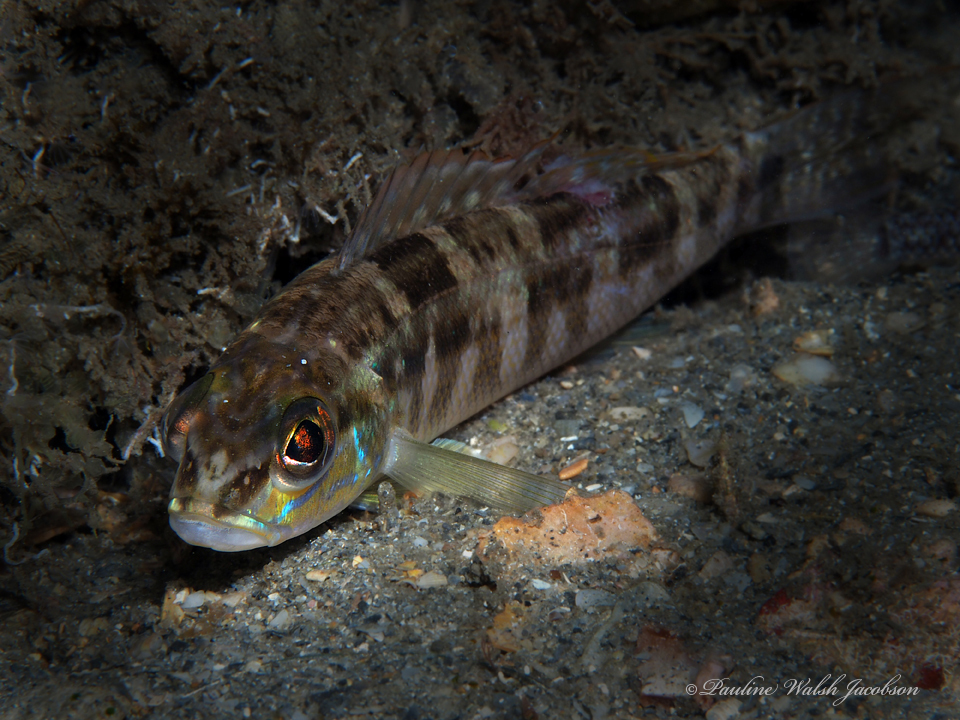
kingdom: Animalia
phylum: Chordata
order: Perciformes
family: Serranidae
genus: Diplectrum
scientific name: Diplectrum bivittatum
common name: Dwarf sand perch
